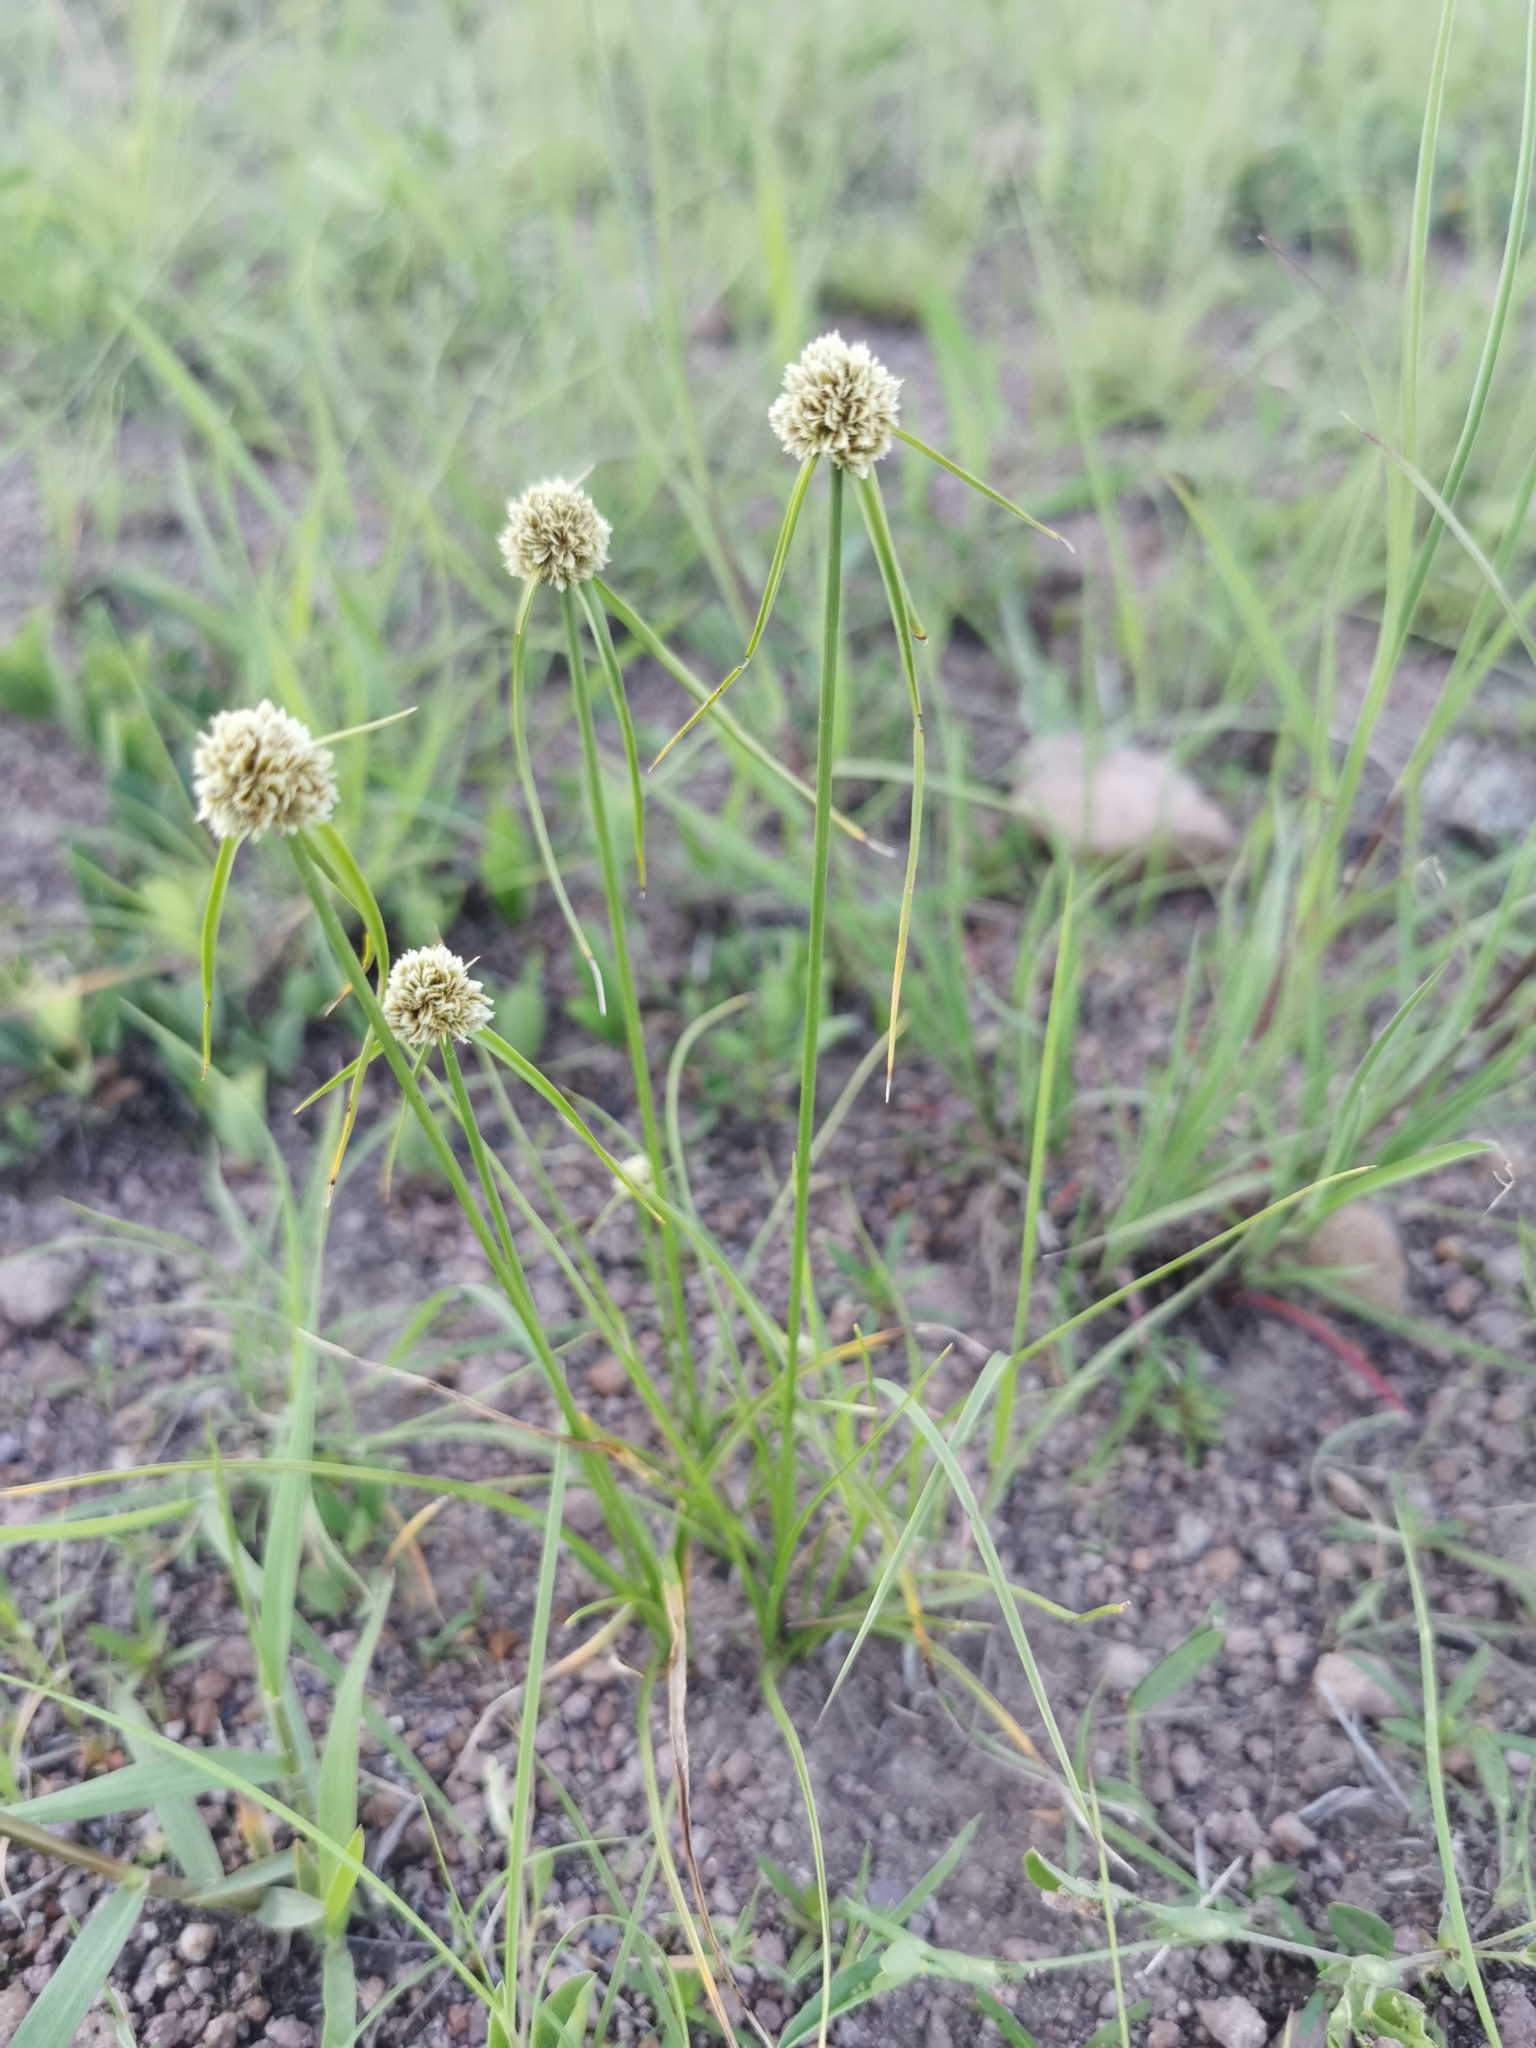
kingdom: Plantae
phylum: Tracheophyta
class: Liliopsida
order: Poales
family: Cyperaceae
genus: Scirpoides
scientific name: Scirpoides mexicana
